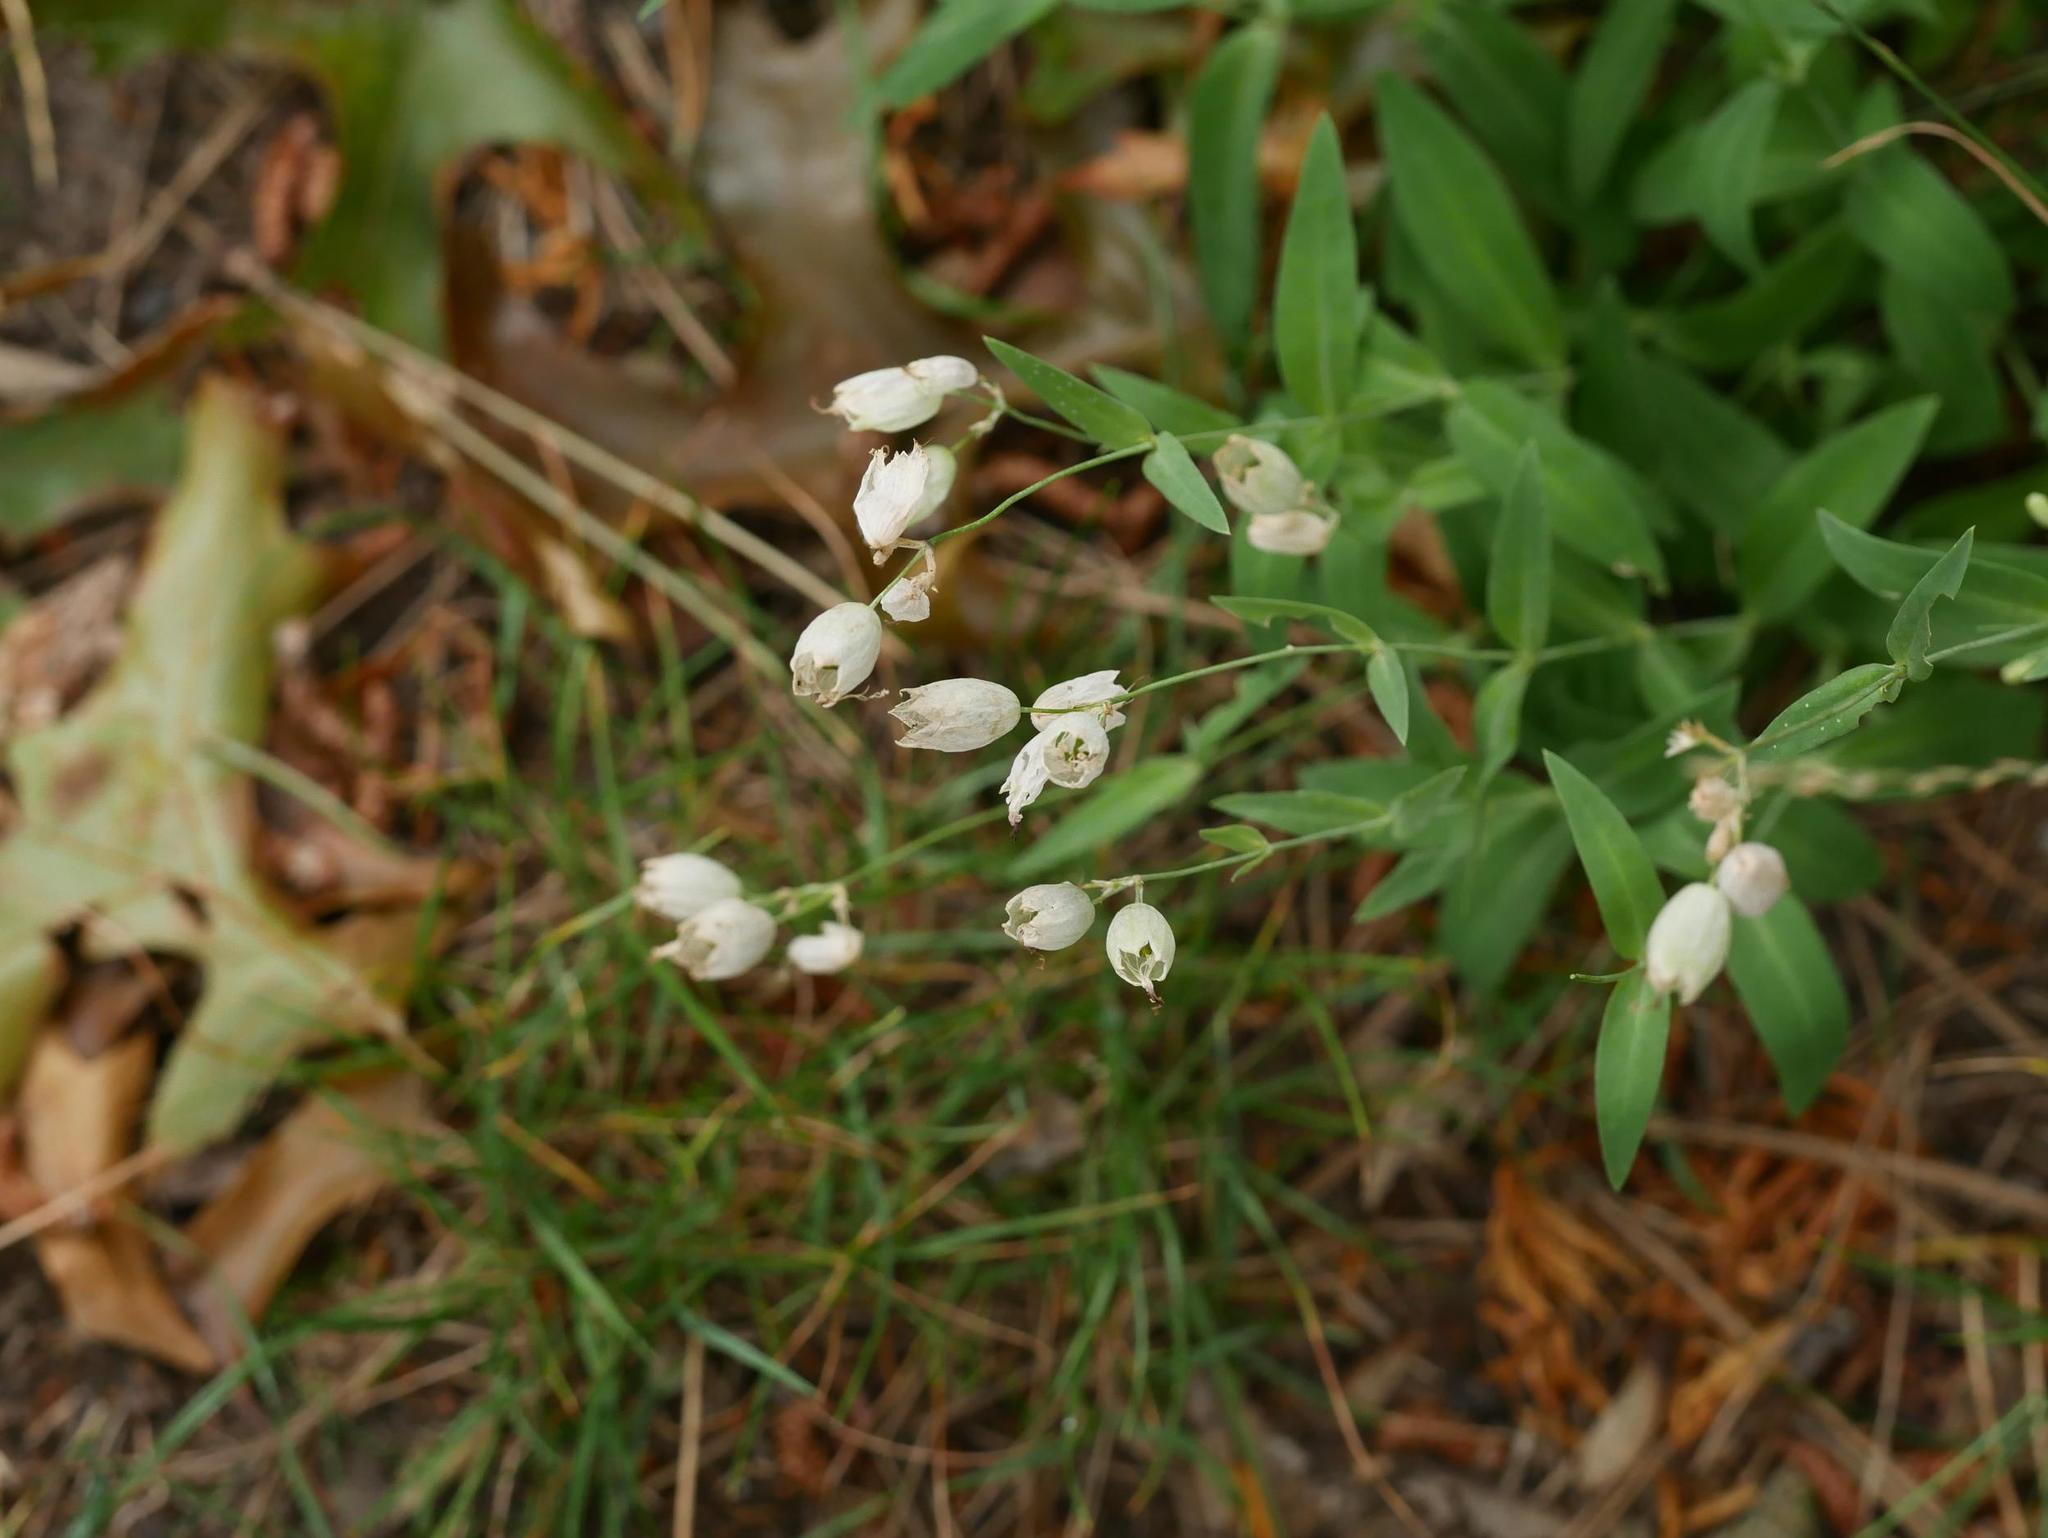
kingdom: Plantae
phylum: Tracheophyta
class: Magnoliopsida
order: Caryophyllales
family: Caryophyllaceae
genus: Silene
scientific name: Silene vulgaris
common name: Bladder campion
